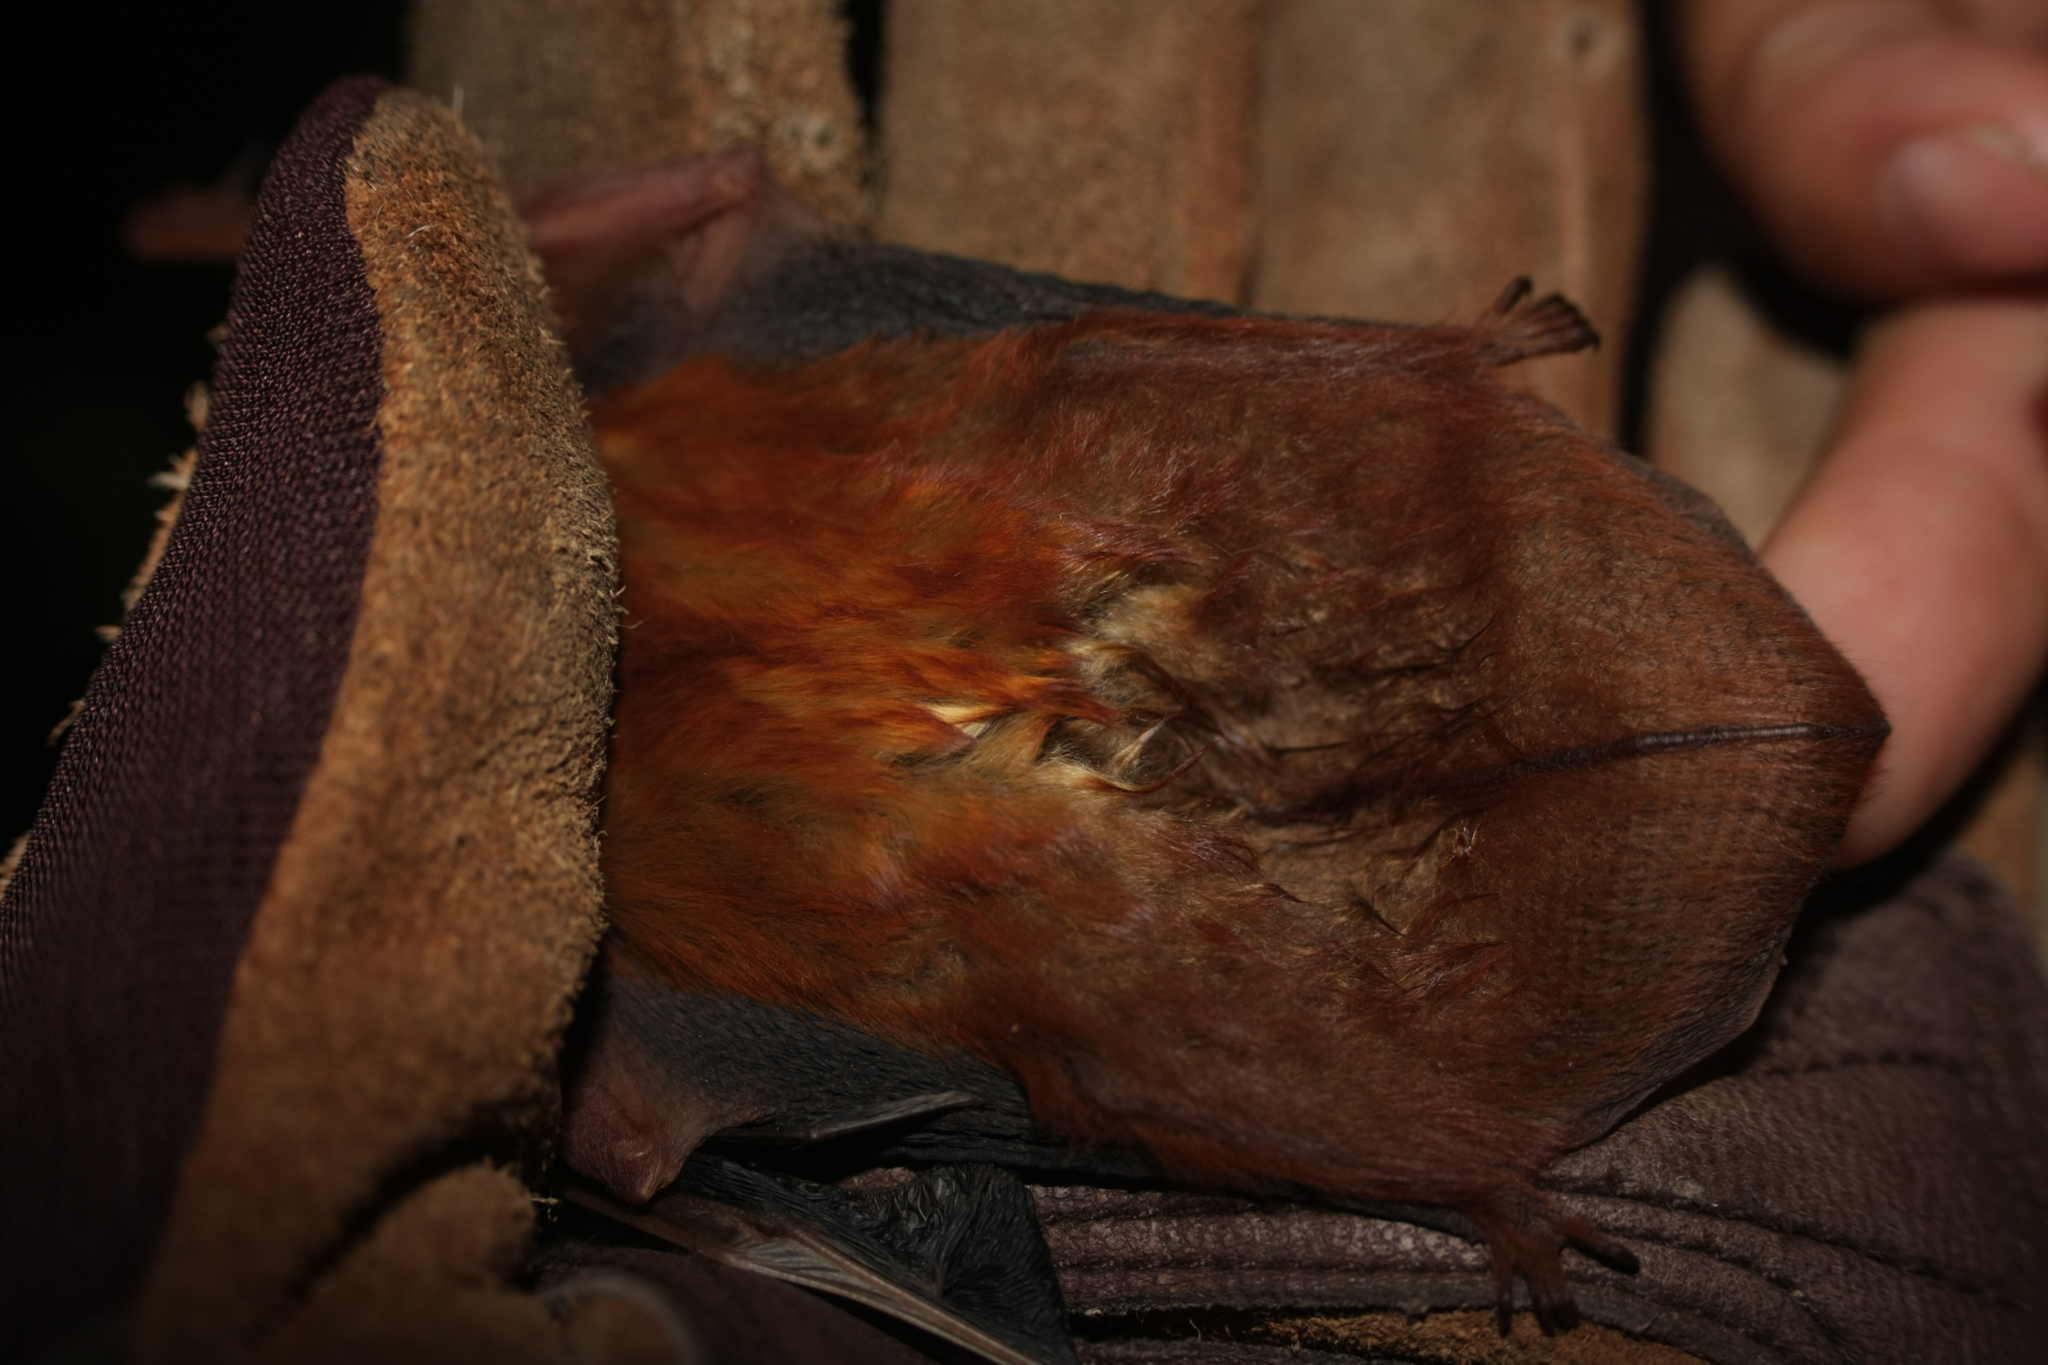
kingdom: Animalia
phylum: Chordata
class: Mammalia
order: Chiroptera
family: Vespertilionidae
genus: Lasiurus
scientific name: Lasiurus frantzii
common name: Desert red bat
